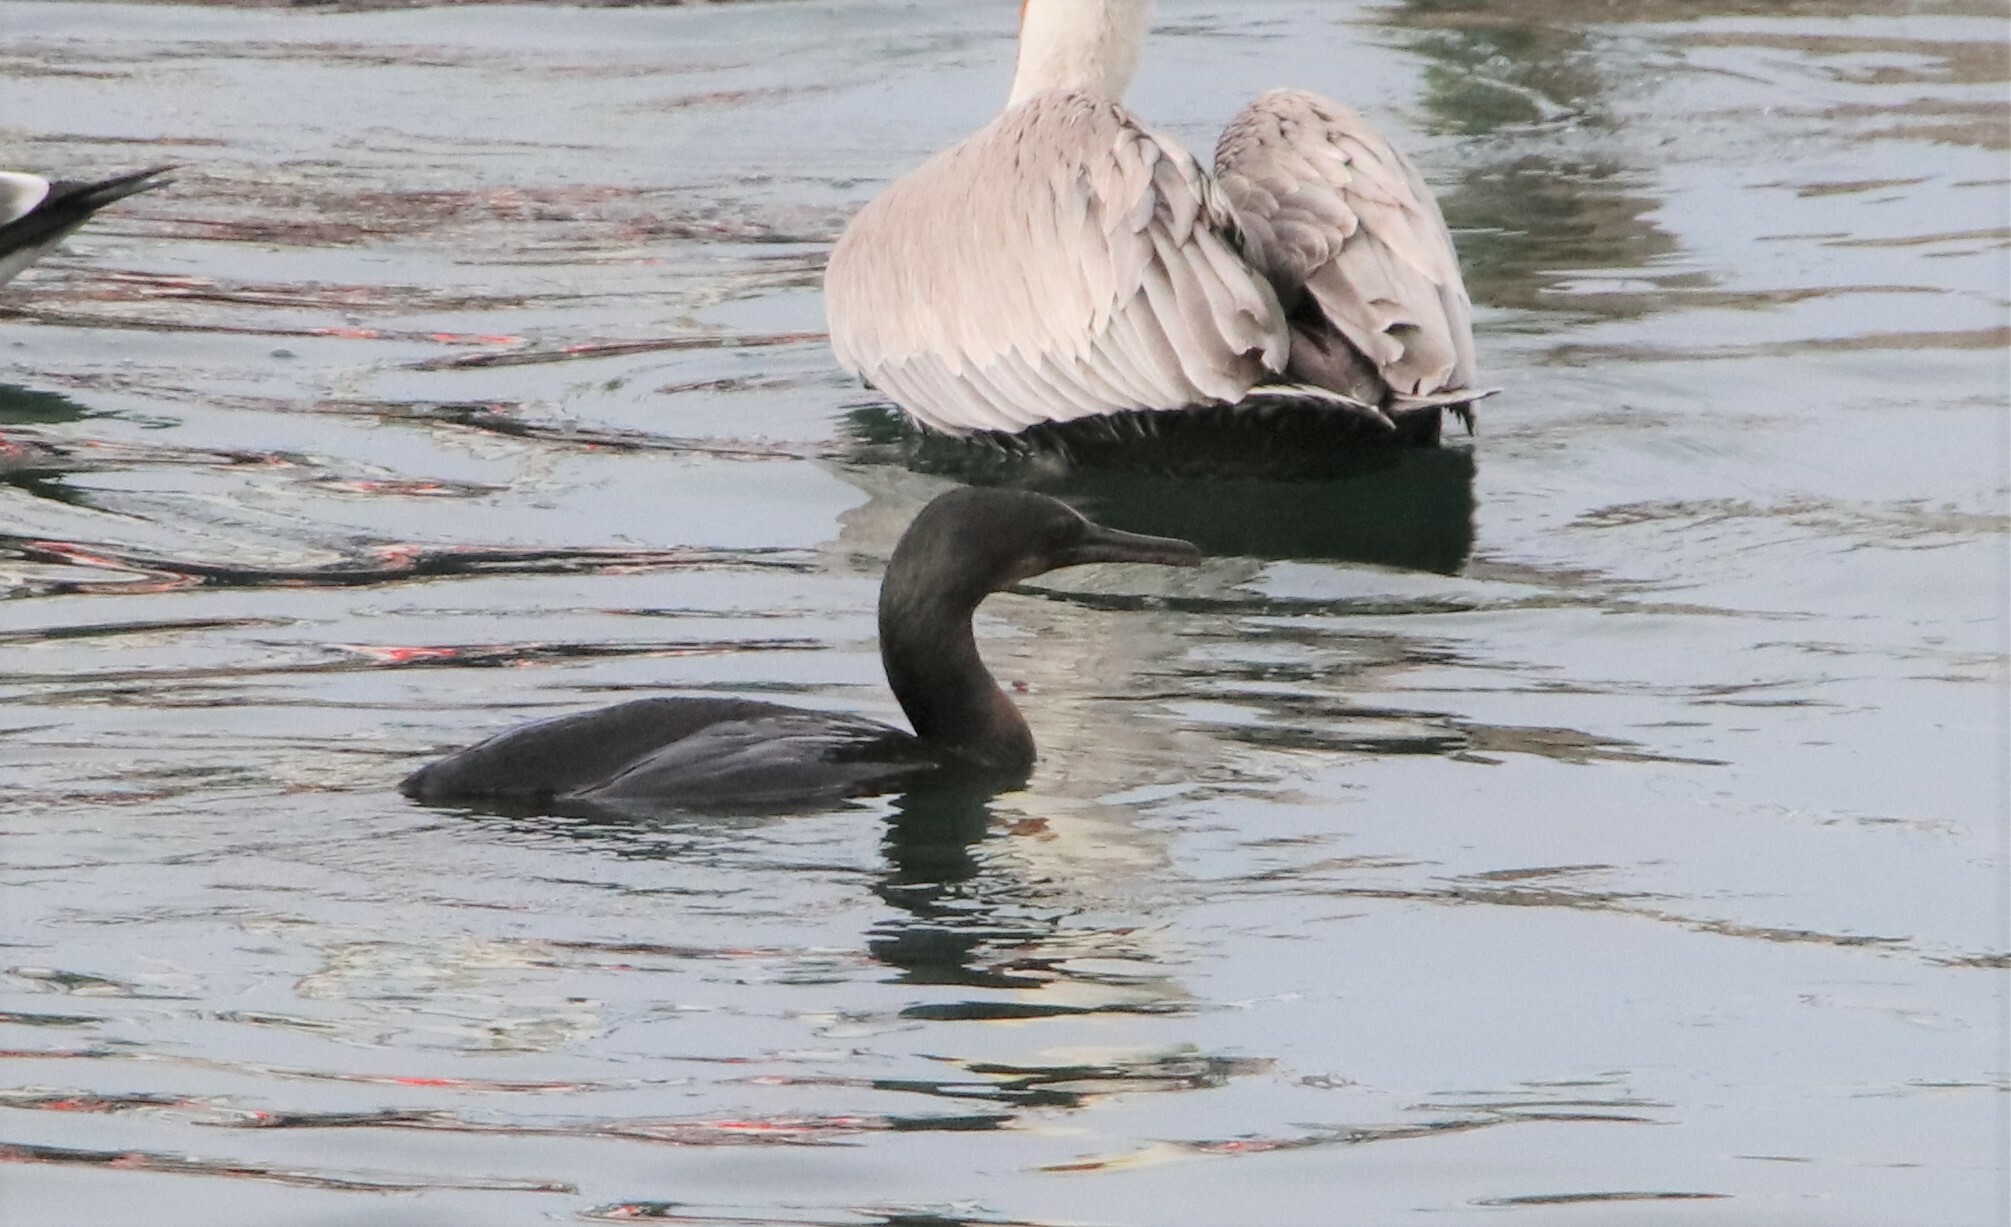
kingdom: Animalia
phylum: Chordata
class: Aves
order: Suliformes
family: Phalacrocoracidae
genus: Urile
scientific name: Urile penicillatus
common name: Brandt's cormorant
